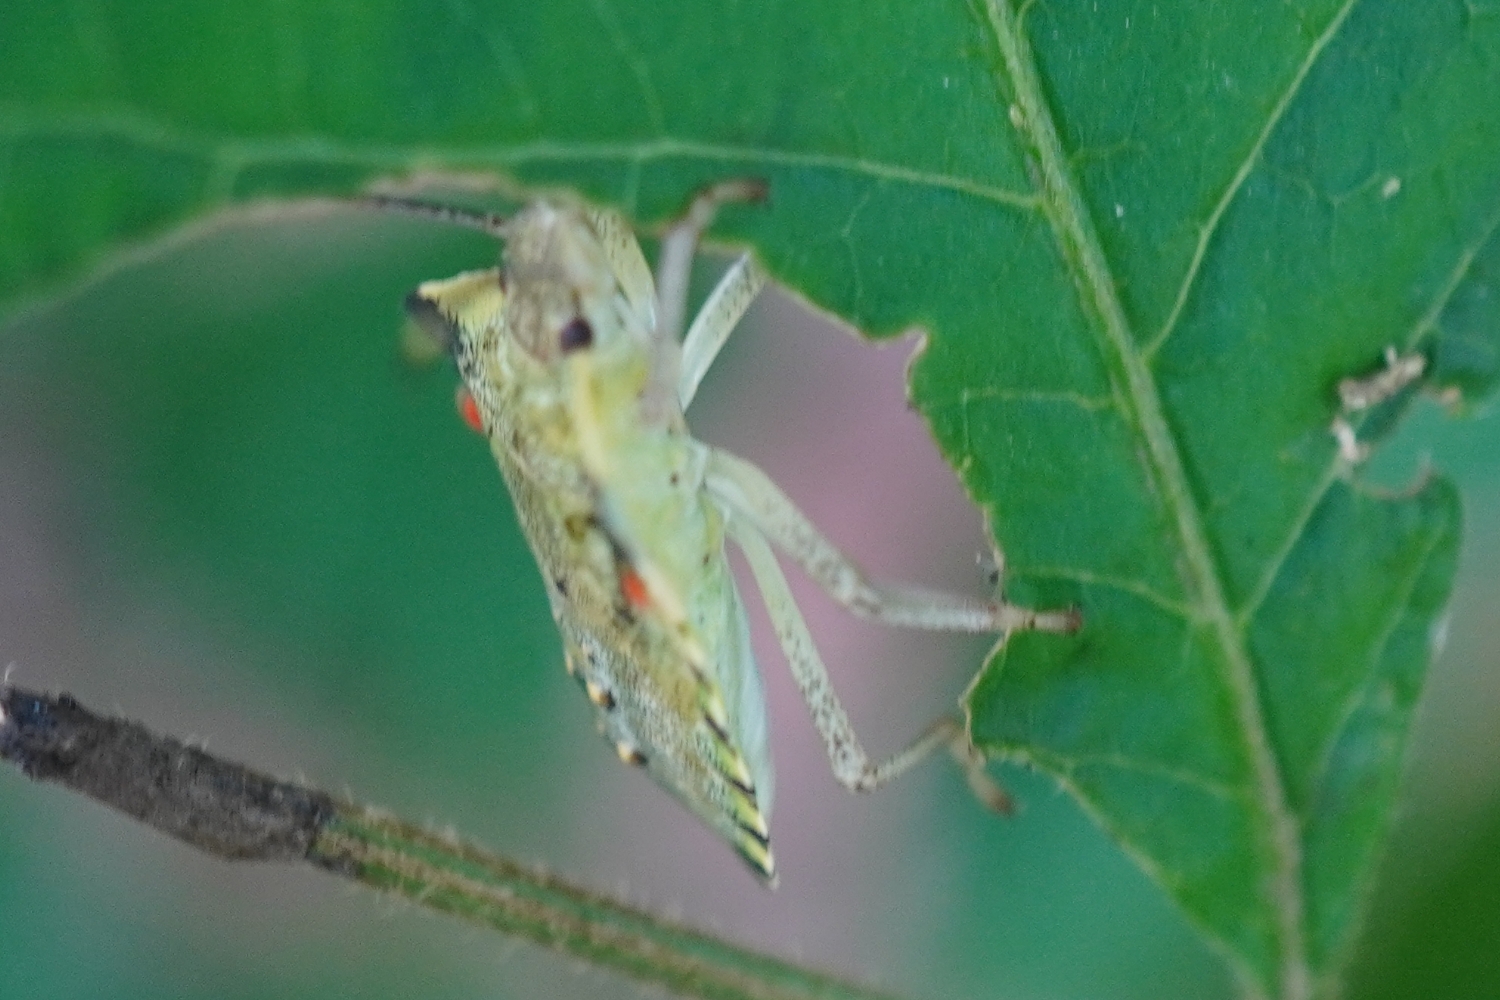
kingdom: Animalia
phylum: Arthropoda
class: Insecta
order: Hemiptera
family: Pentatomidae
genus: Pentatoma
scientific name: Pentatoma
